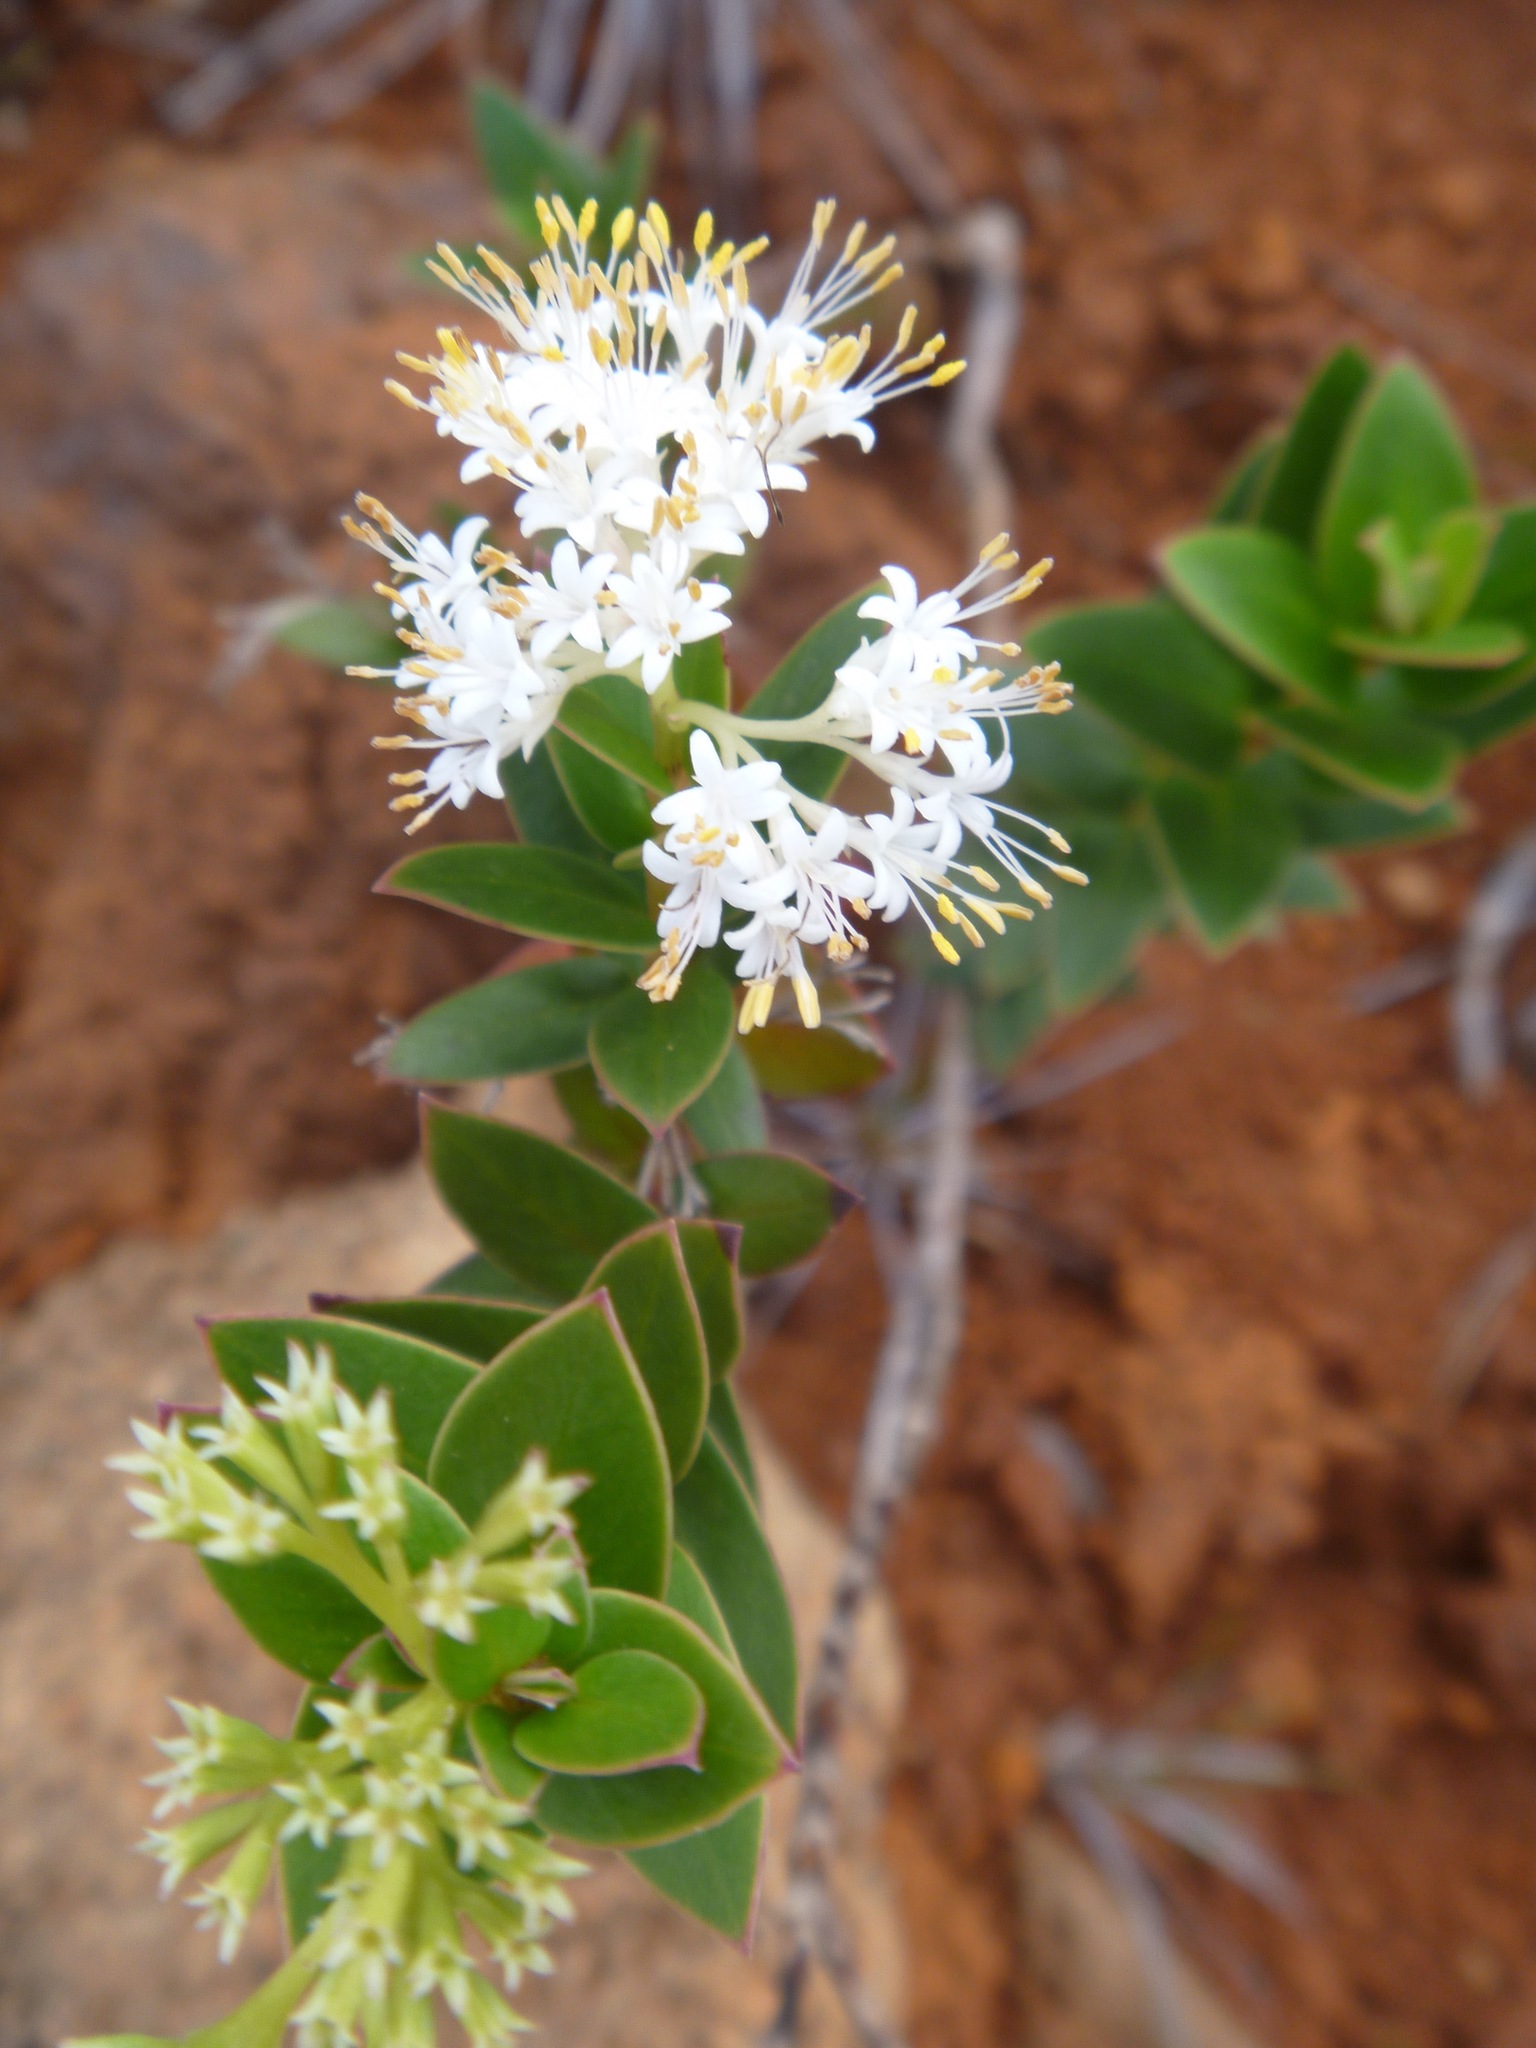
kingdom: Plantae
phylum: Tracheophyta
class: Magnoliopsida
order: Gentianales
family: Rubiaceae
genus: Normandia
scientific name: Normandia neocaledonica
